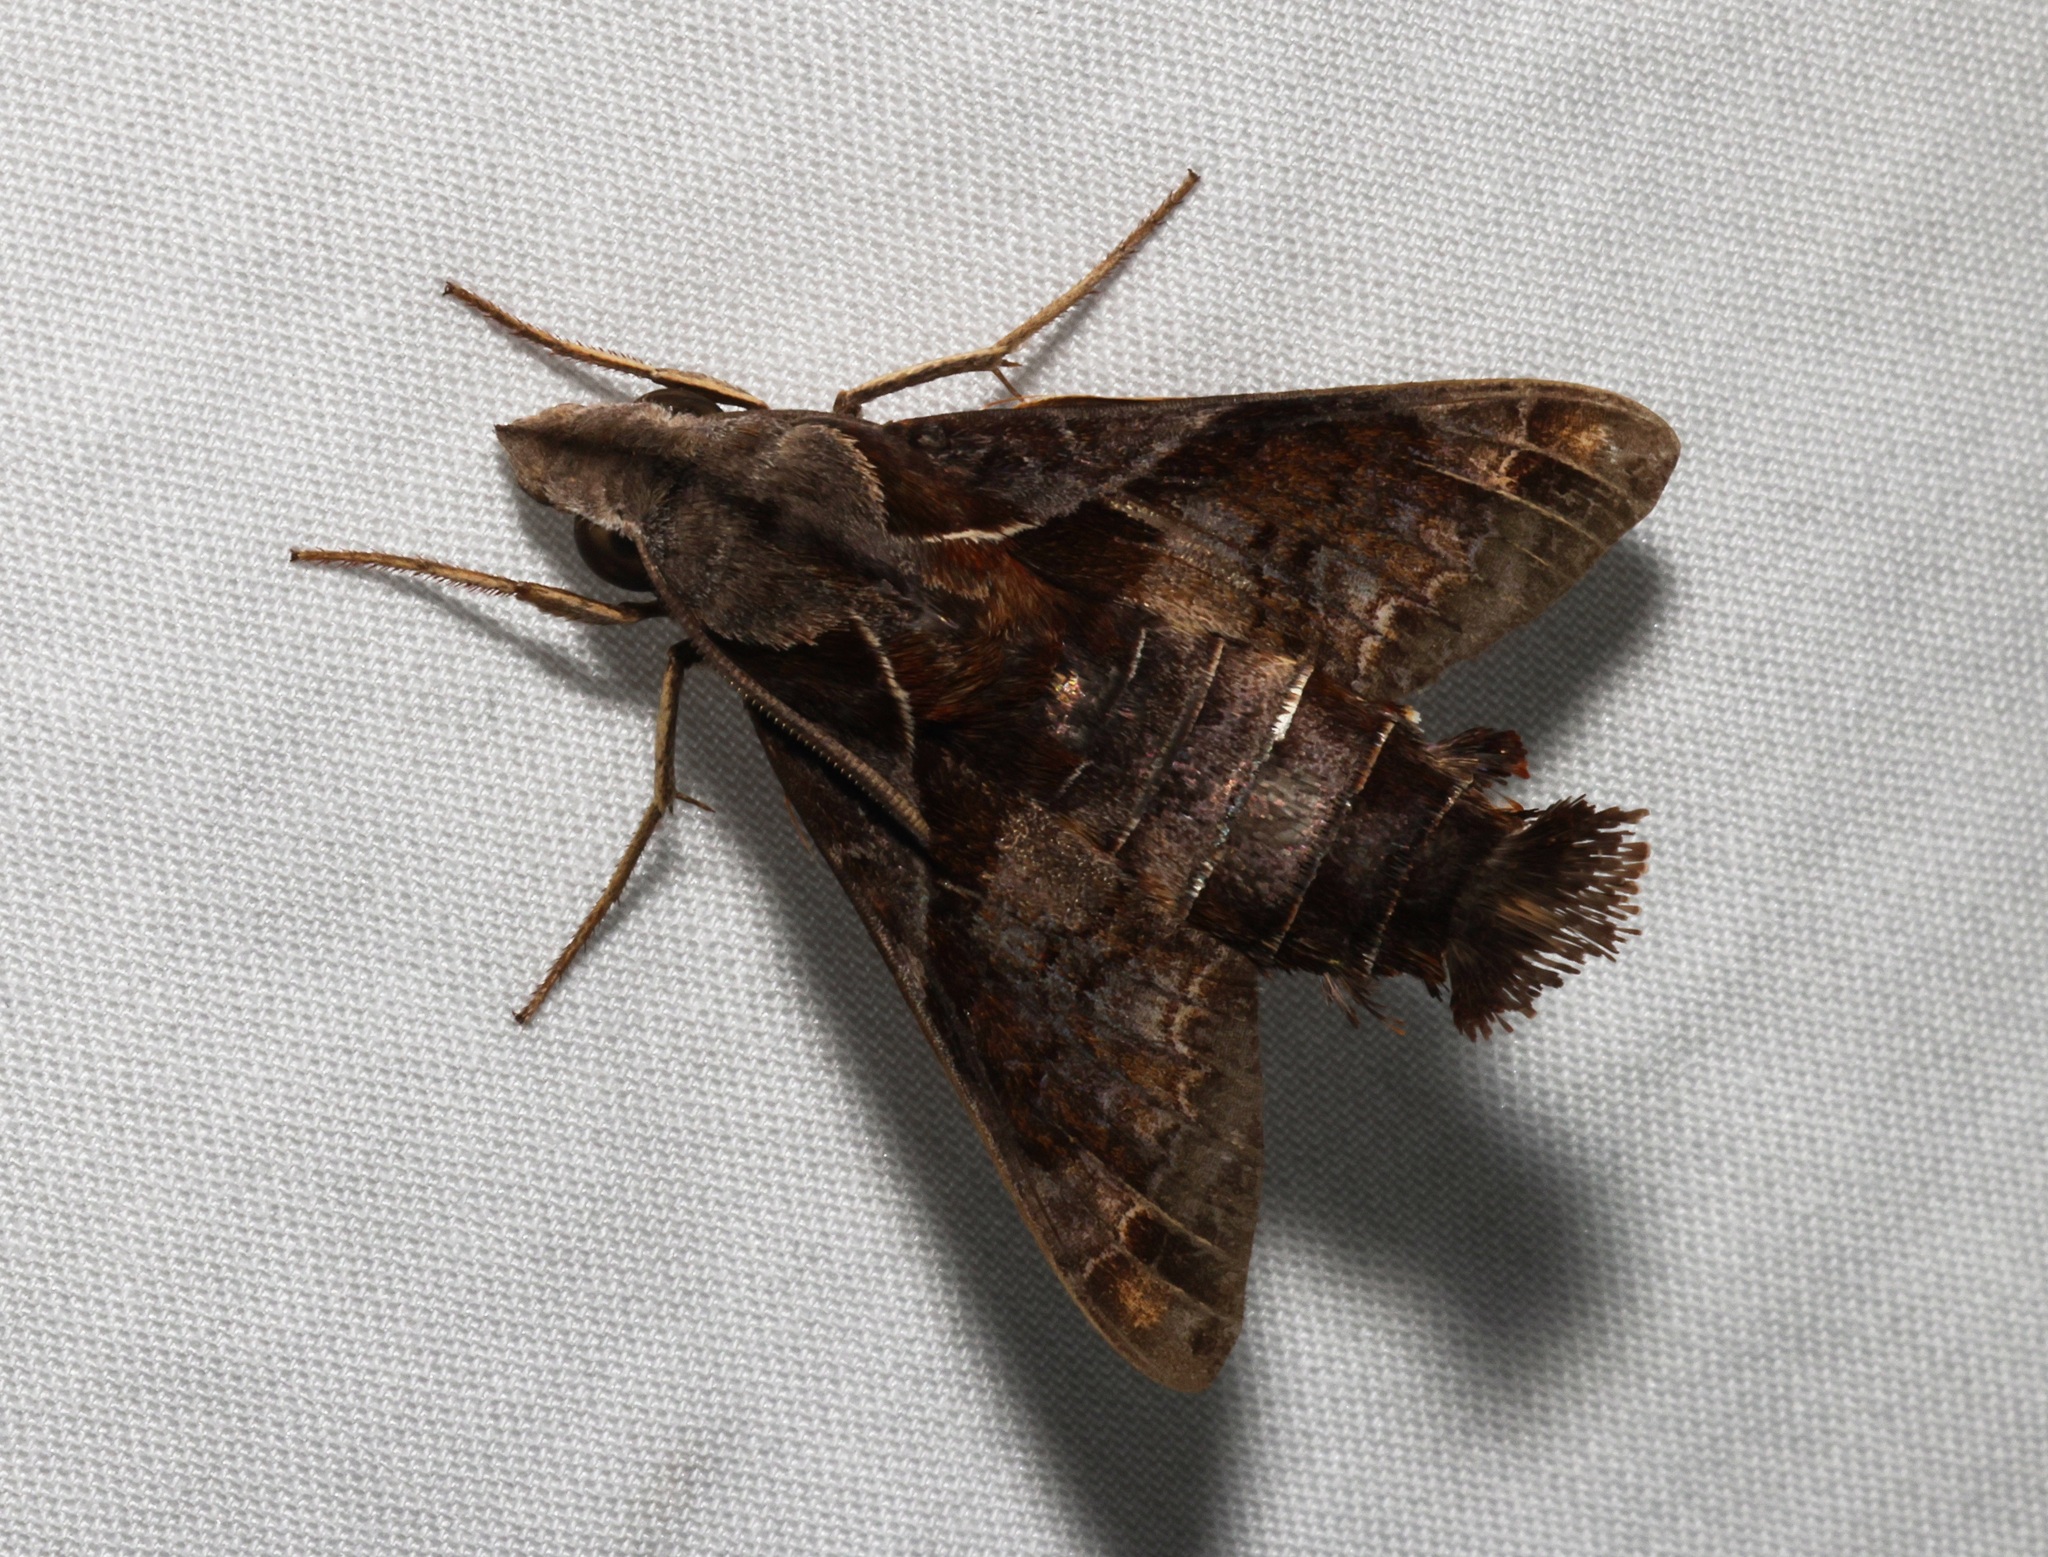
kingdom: Animalia
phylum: Arthropoda
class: Insecta
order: Lepidoptera
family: Sphingidae
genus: Macroglossum
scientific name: Macroglossum fritzei
